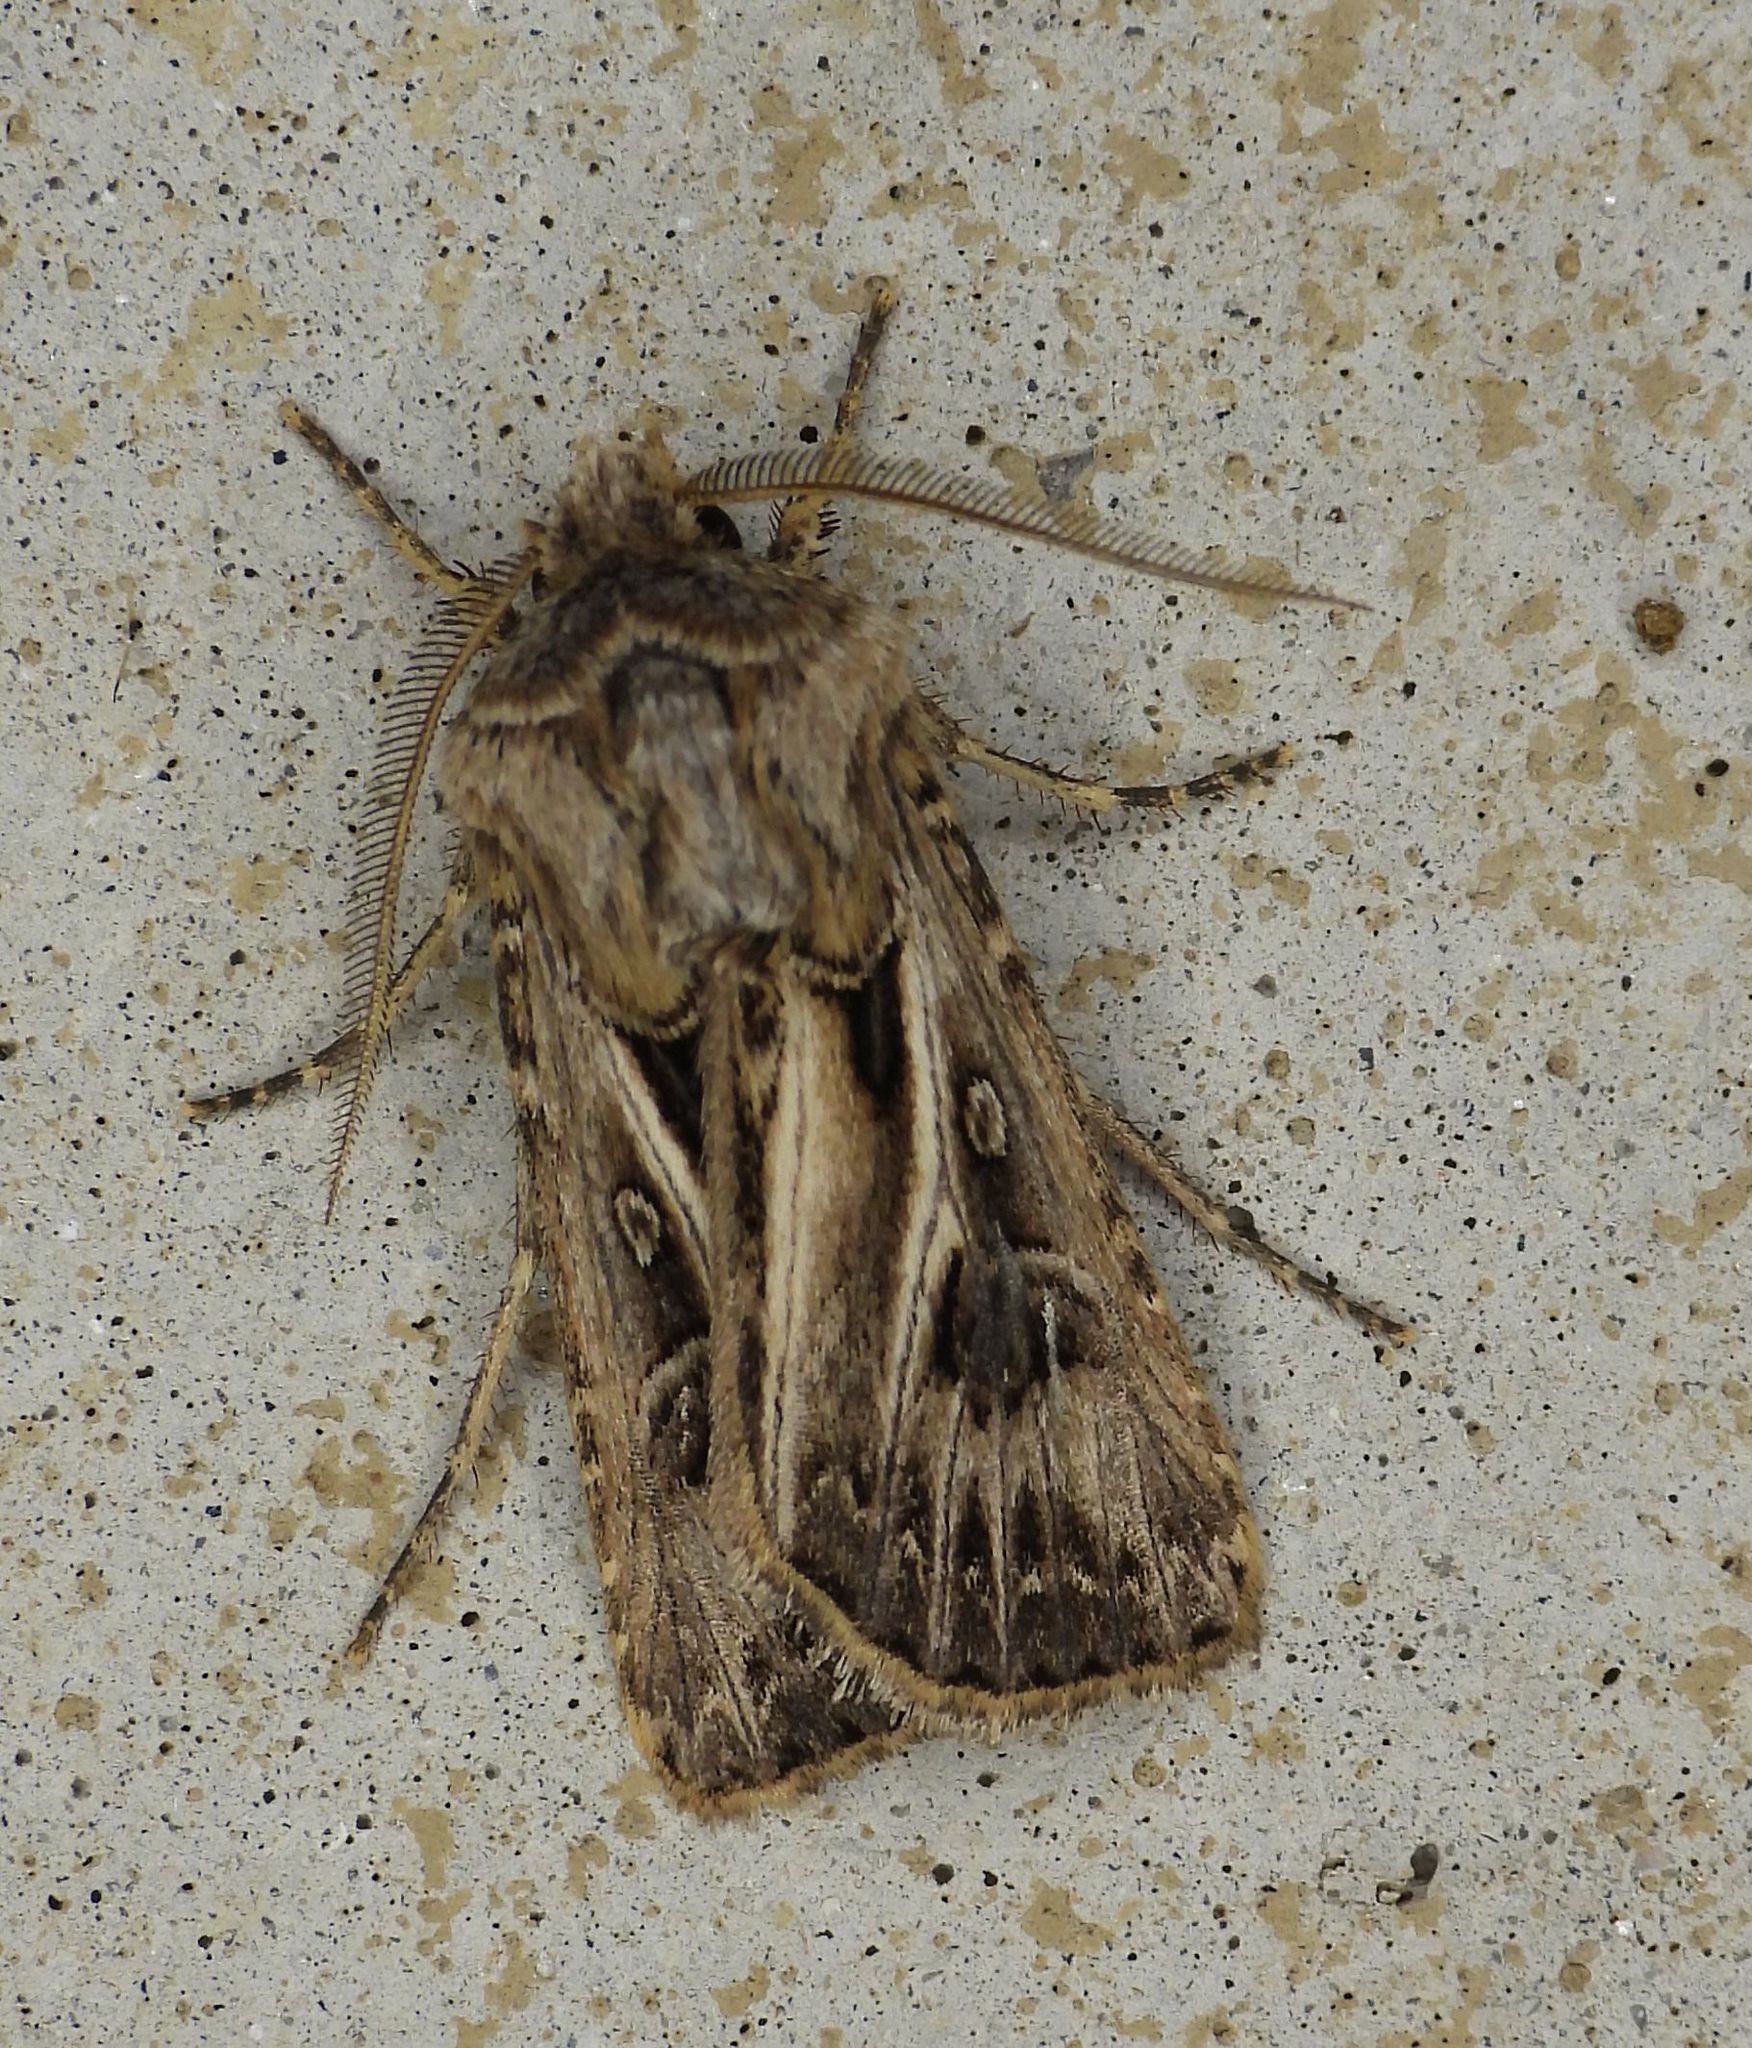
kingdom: Animalia
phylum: Arthropoda
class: Insecta
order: Lepidoptera
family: Noctuidae
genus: Agrotis
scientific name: Agrotis gladiaria
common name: Claybacked cutworm
